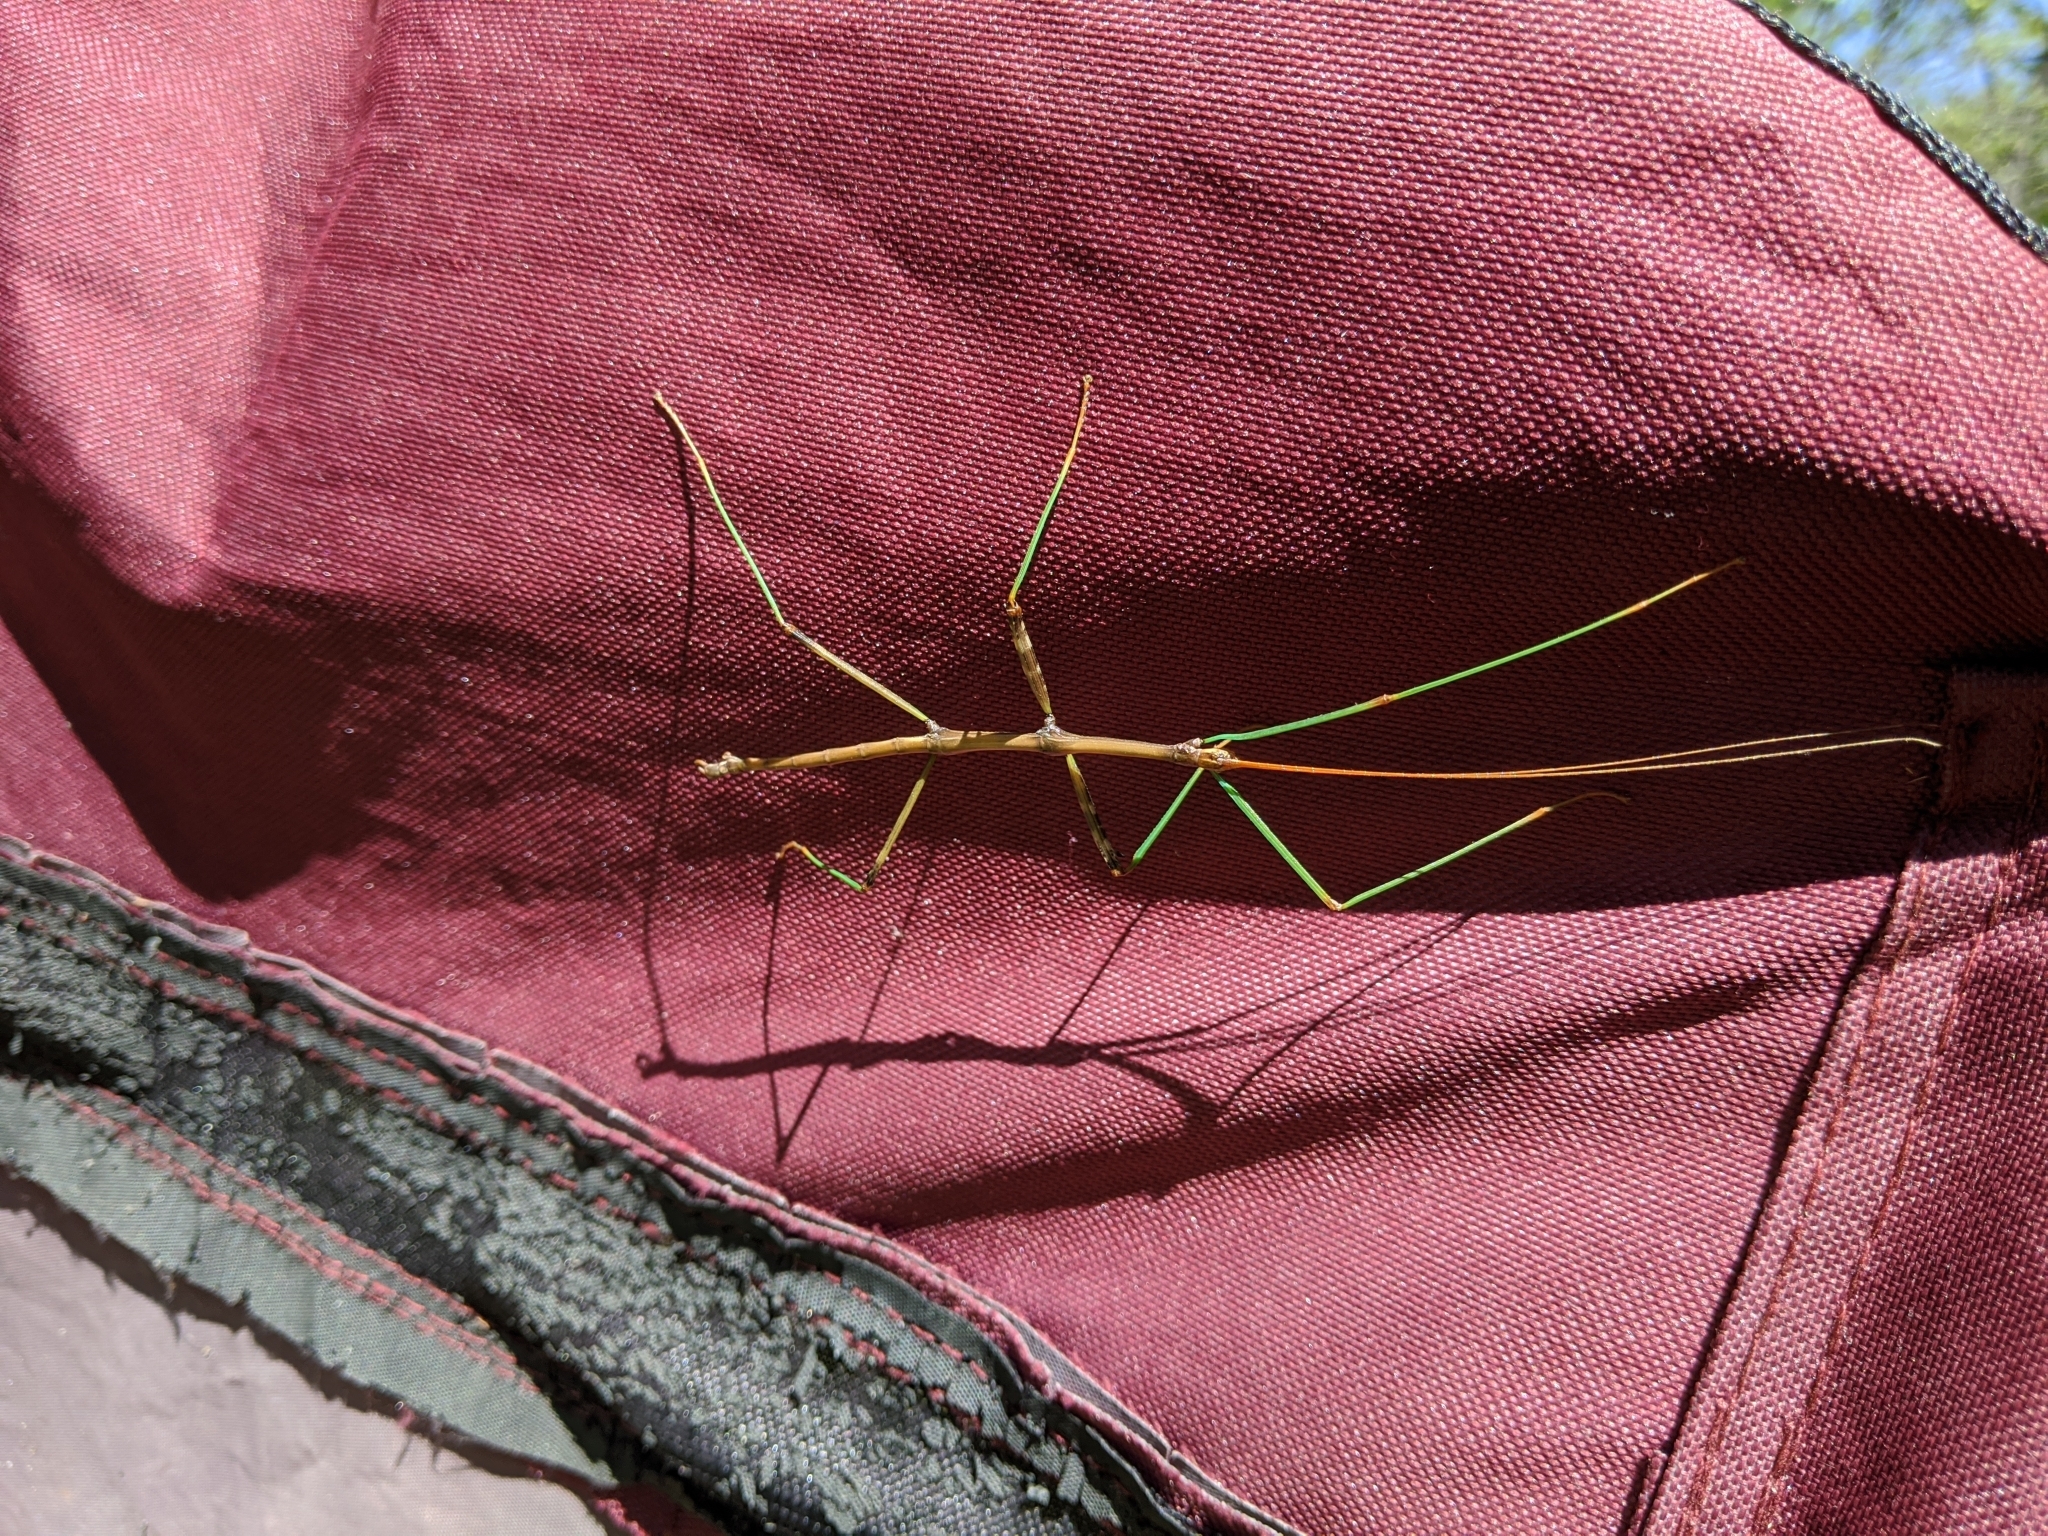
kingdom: Animalia
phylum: Arthropoda
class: Insecta
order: Phasmida
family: Diapheromeridae
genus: Diapheromera
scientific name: Diapheromera femorata
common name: Common american walkingstick
